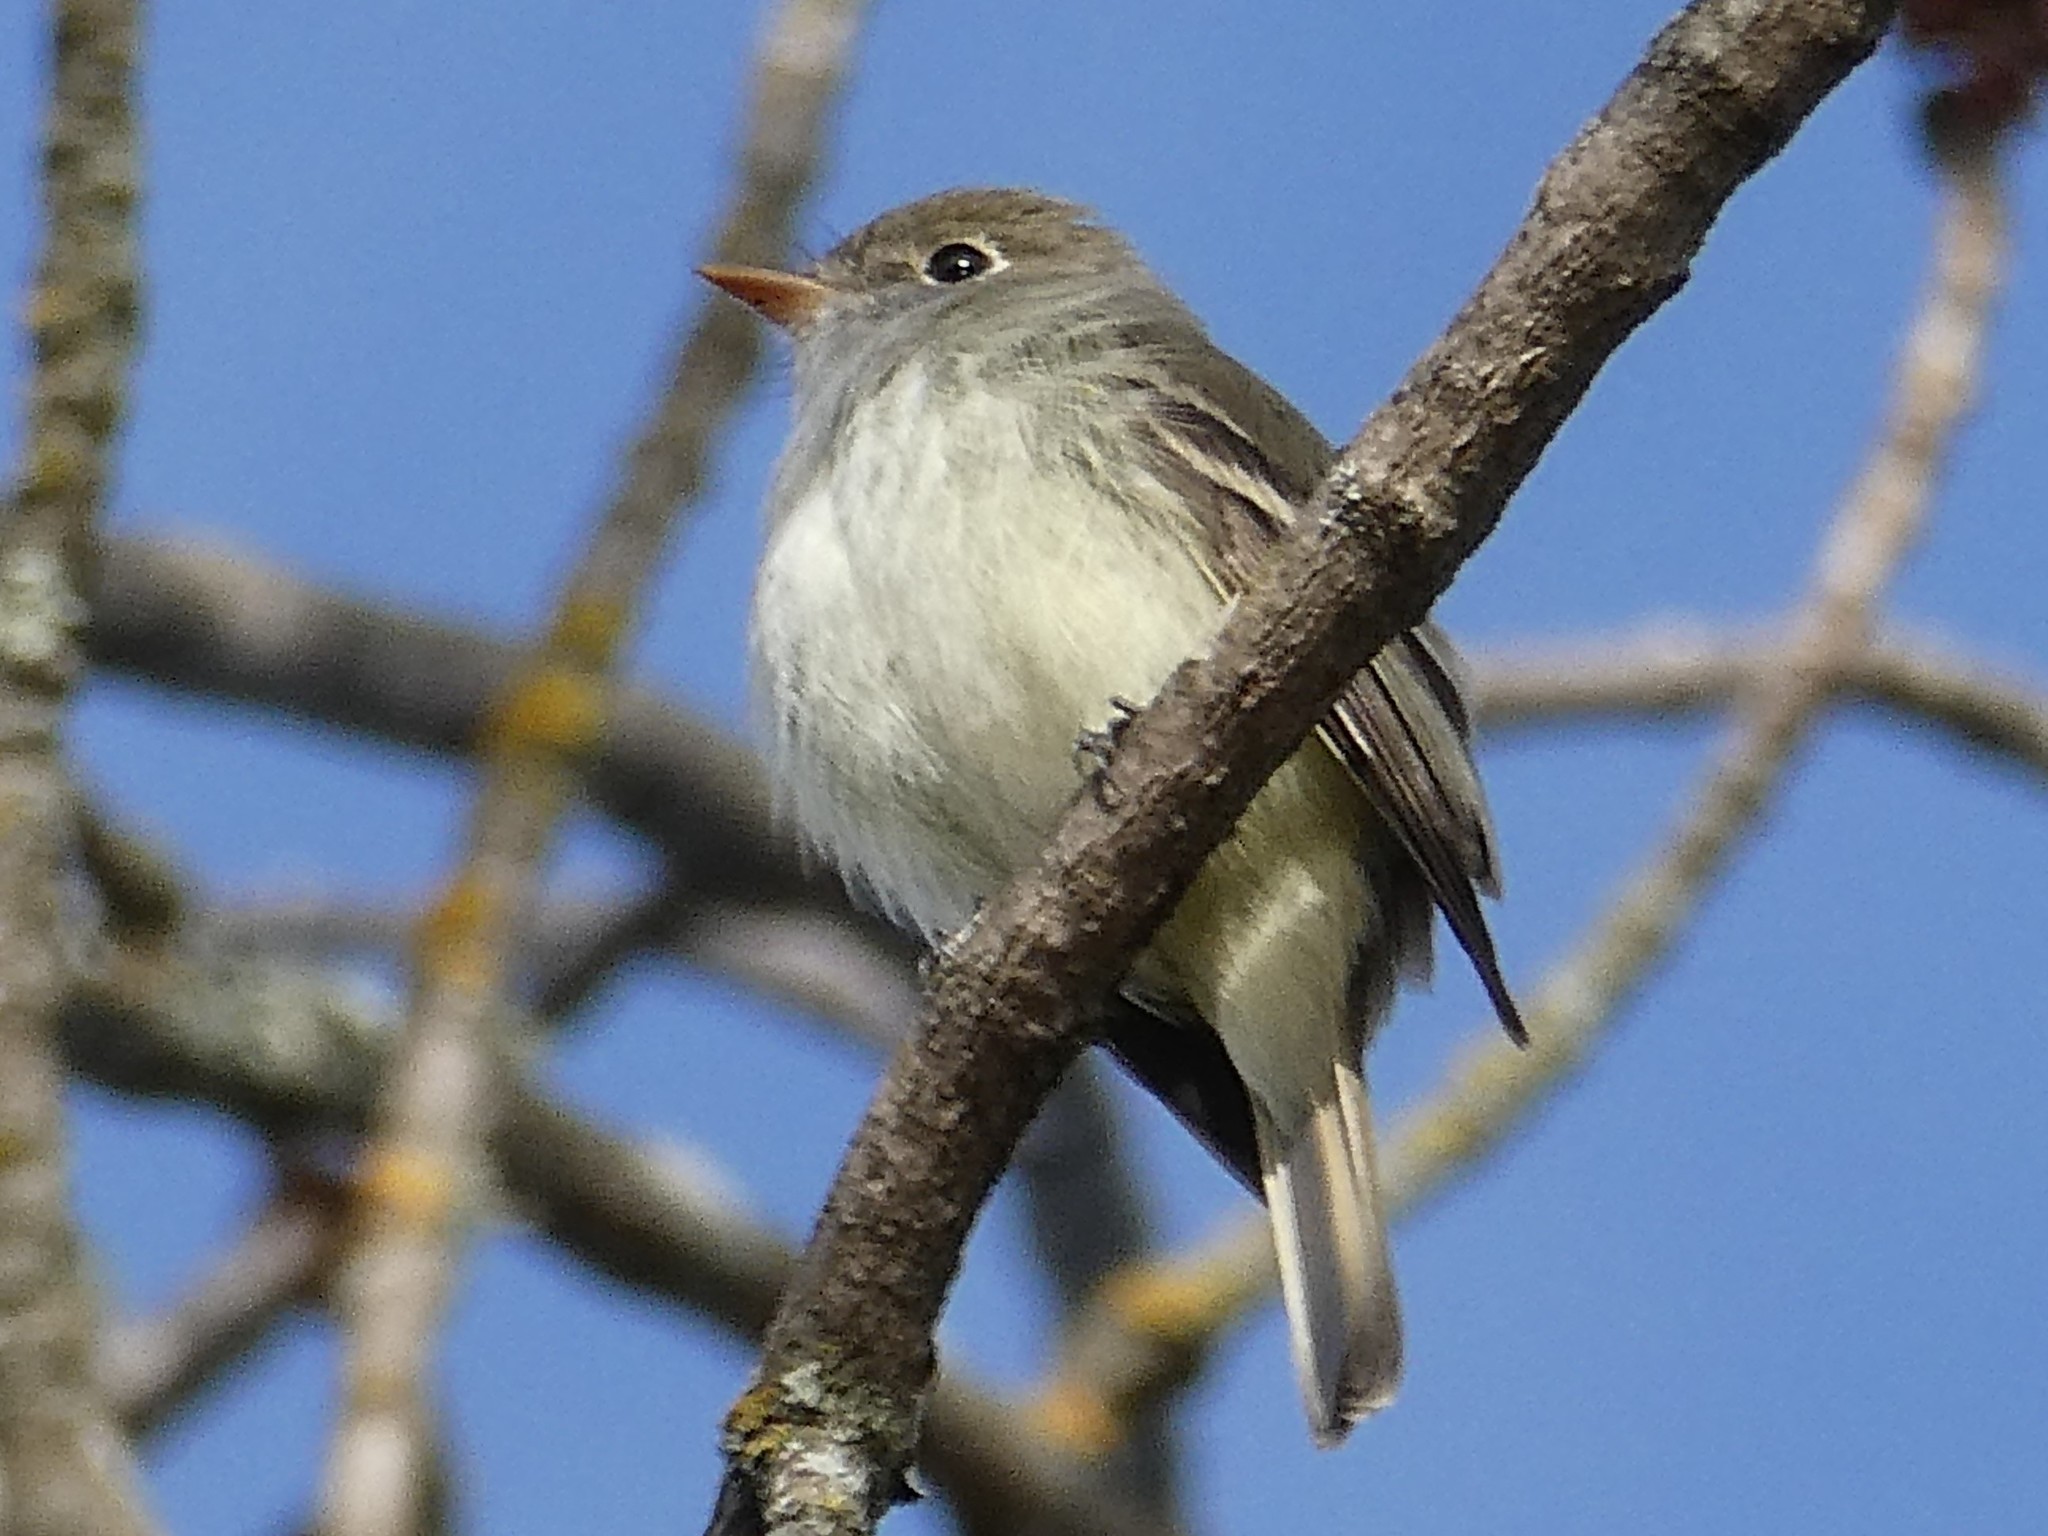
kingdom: Animalia
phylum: Chordata
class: Aves
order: Passeriformes
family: Tyrannidae
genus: Empidonax
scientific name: Empidonax minimus
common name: Least flycatcher
